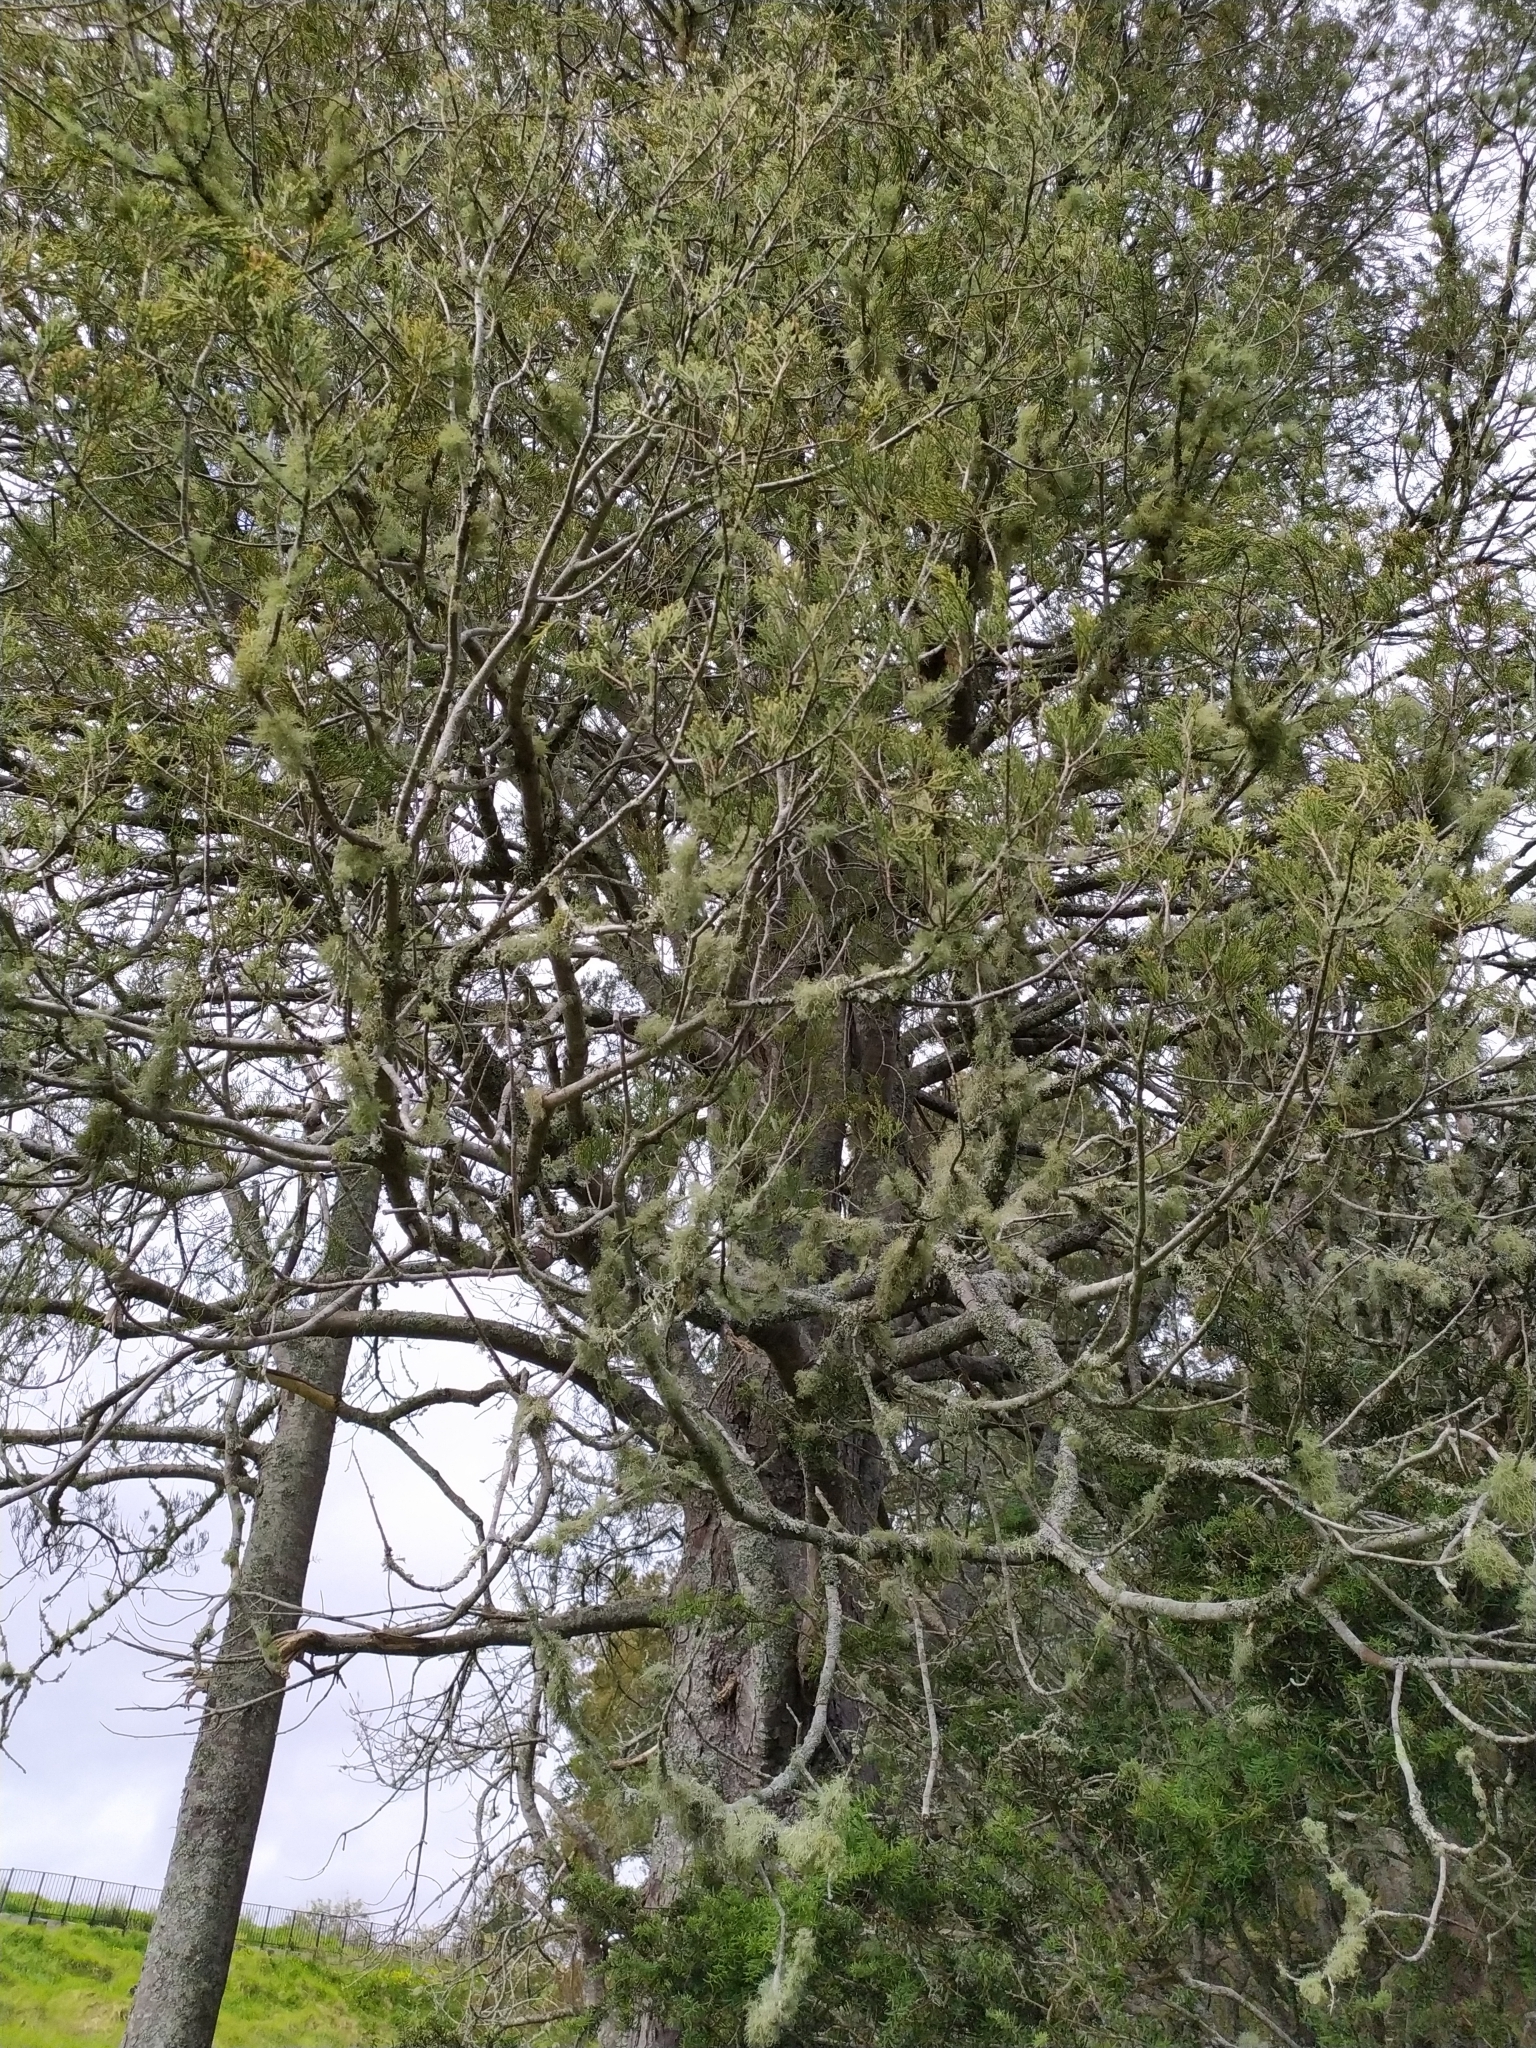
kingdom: Fungi
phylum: Ascomycota
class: Lecanoromycetes
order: Lecanorales
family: Ramalinaceae
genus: Ramalina
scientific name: Ramalina peruviana
